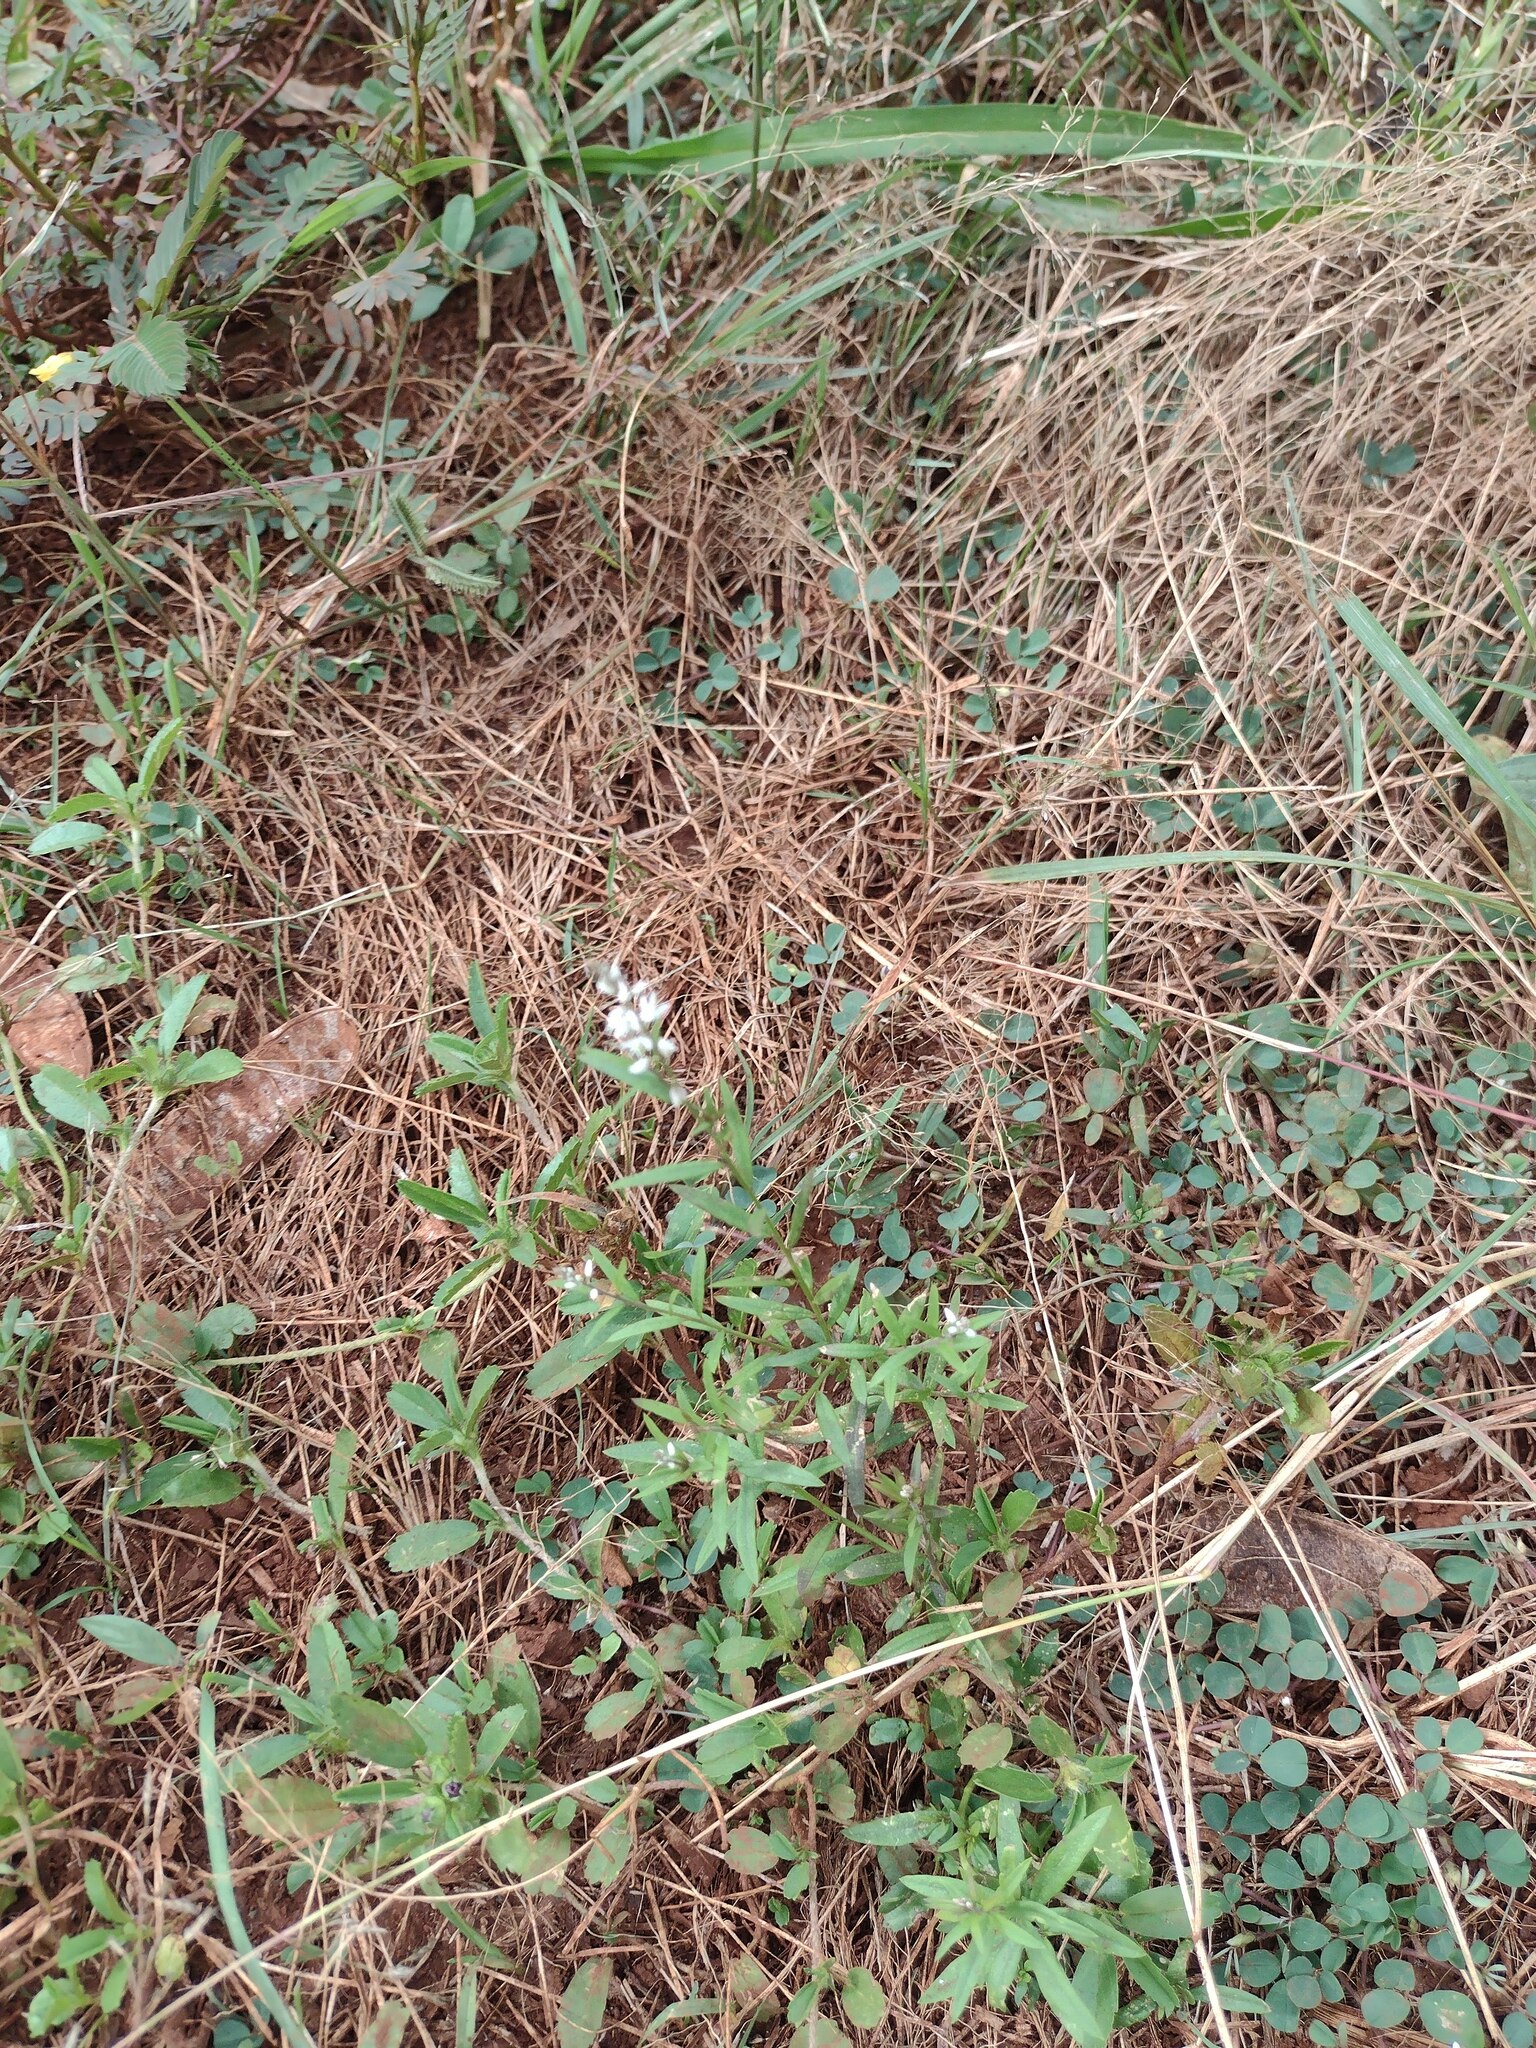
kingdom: Plantae
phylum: Tracheophyta
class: Magnoliopsida
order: Fabales
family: Polygalaceae
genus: Polygala
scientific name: Polygala paniculata
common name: Orosne
